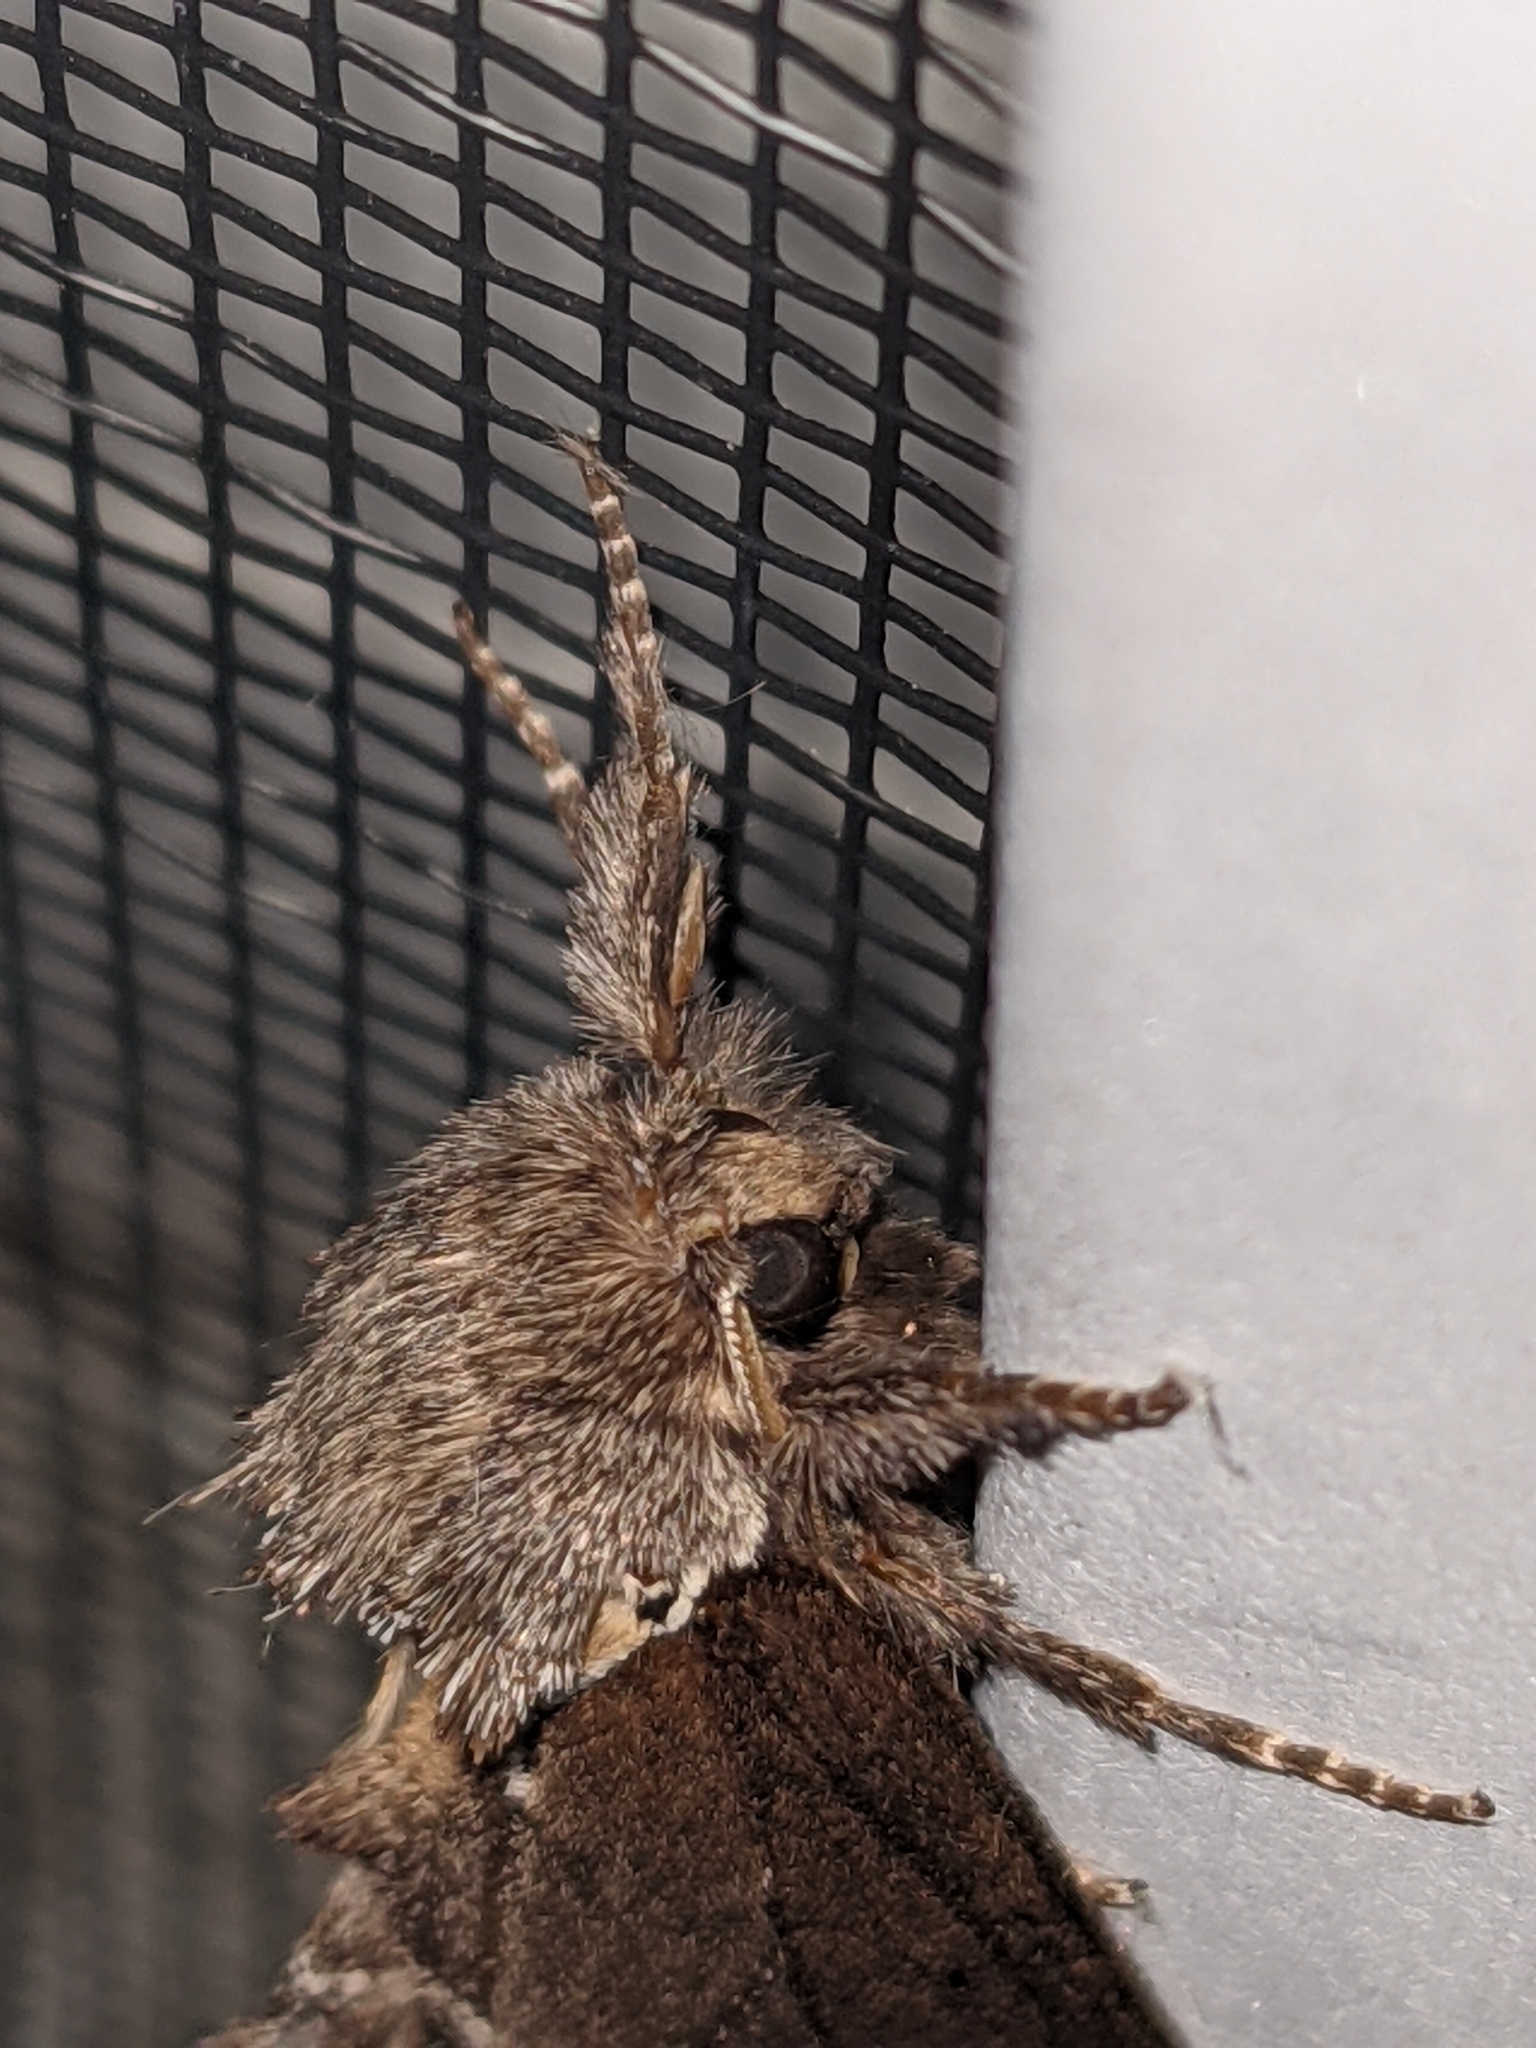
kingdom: Animalia
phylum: Arthropoda
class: Insecta
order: Lepidoptera
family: Notodontidae
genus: Pheosidea
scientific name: Pheosidea elegans
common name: Elegant prominent
